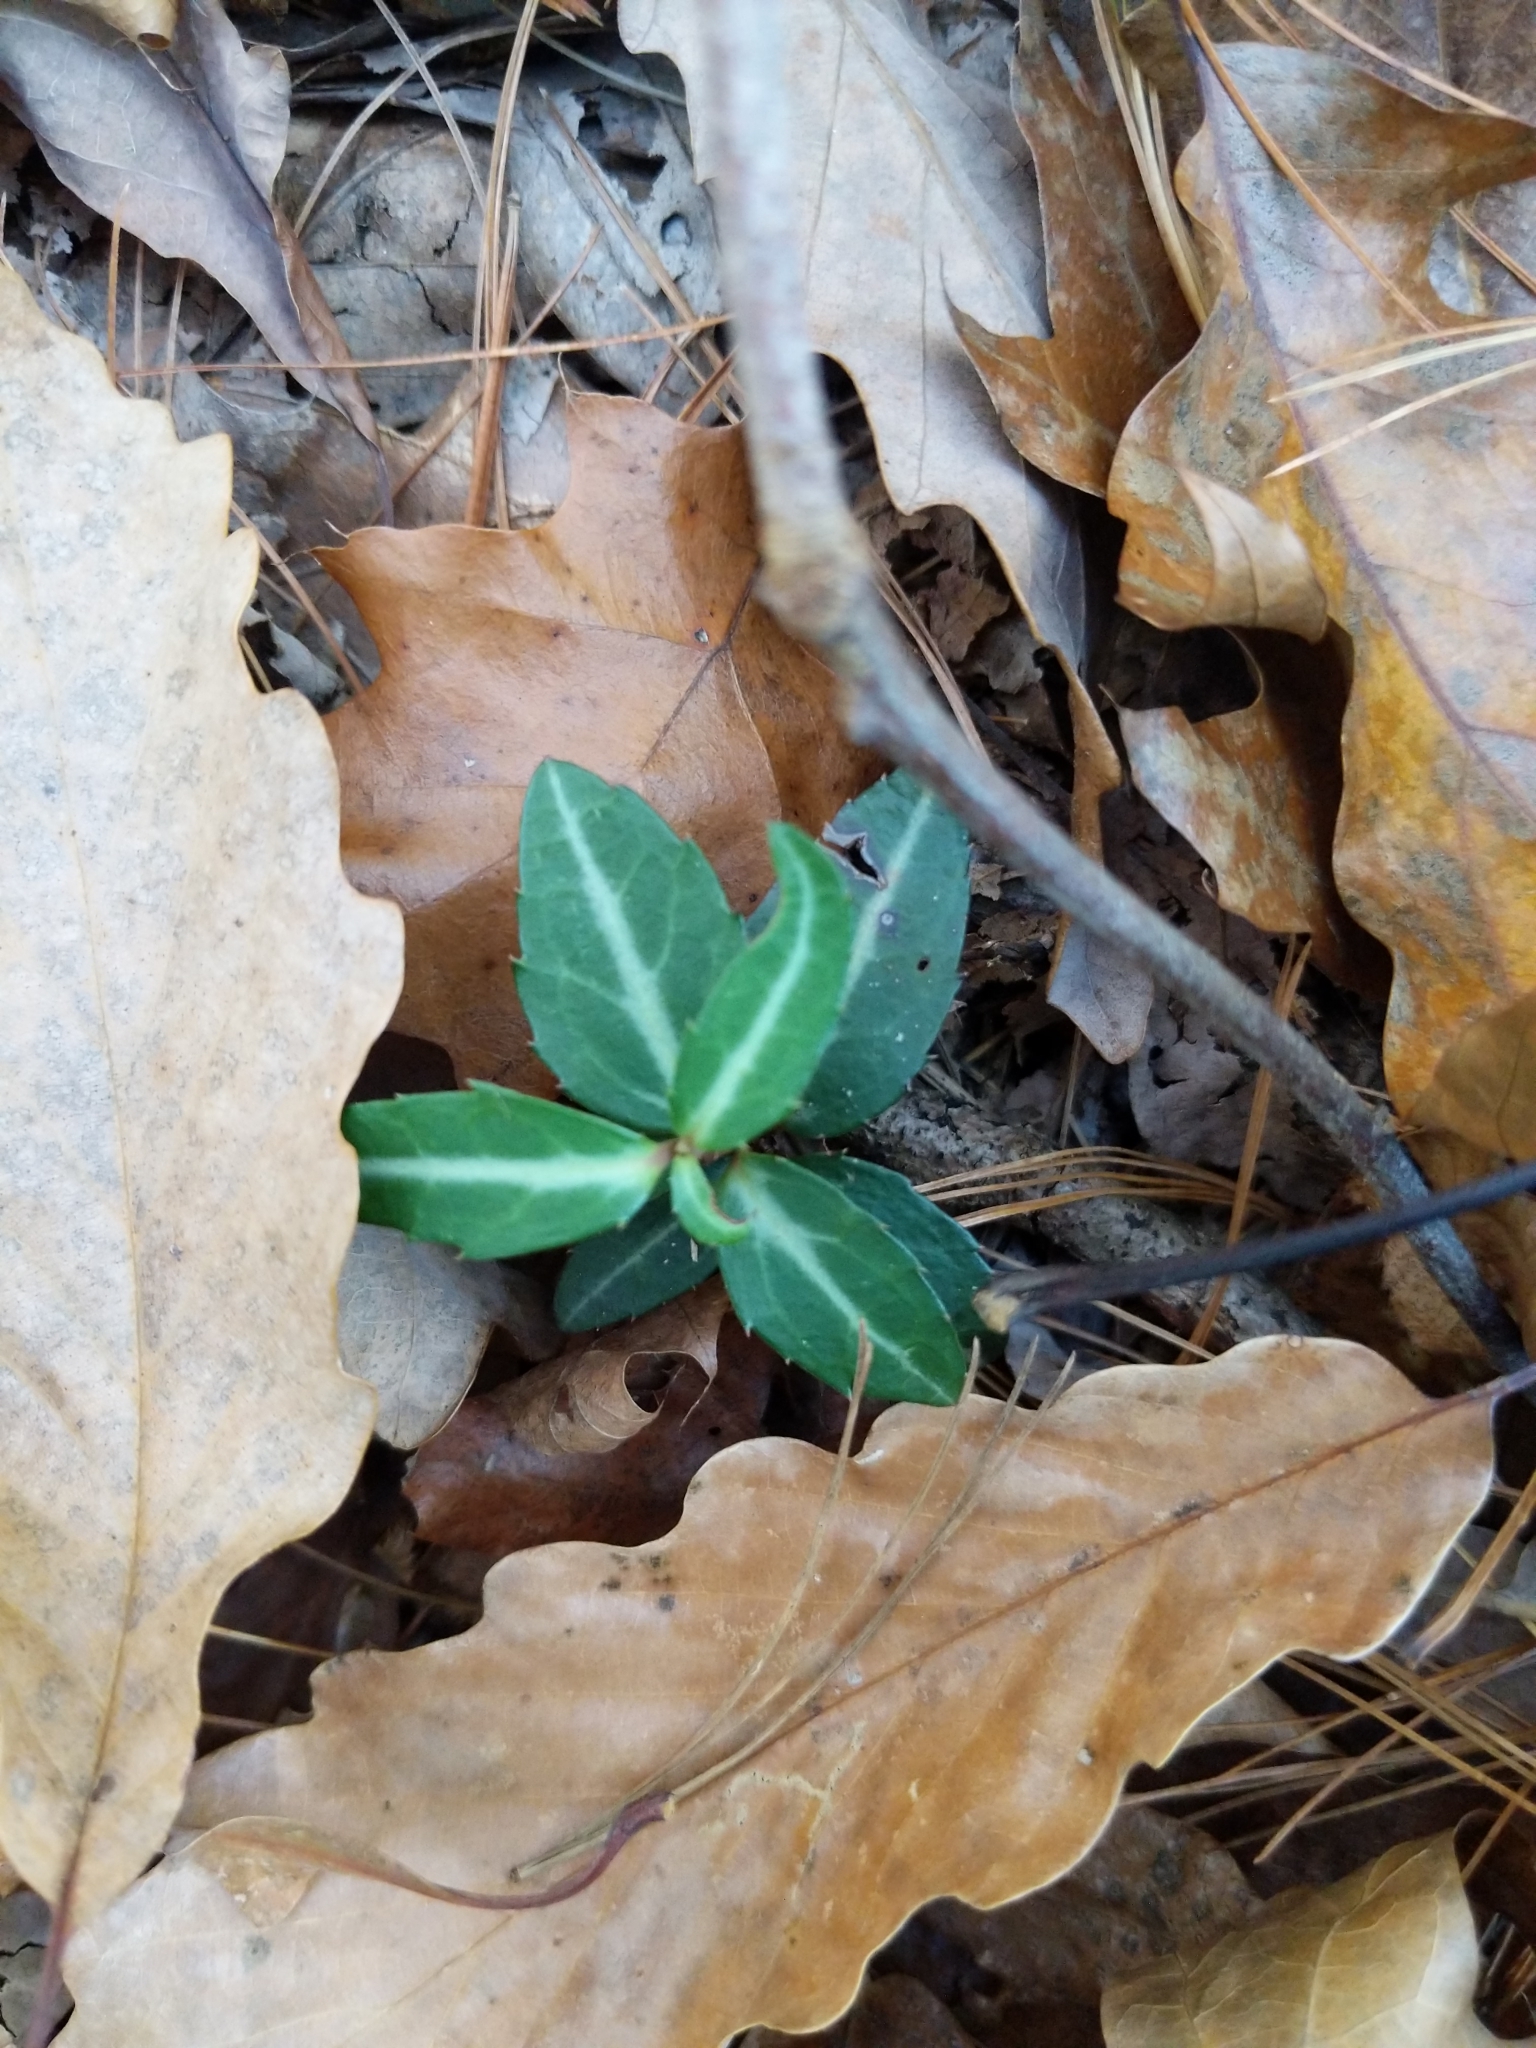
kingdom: Plantae
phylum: Tracheophyta
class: Magnoliopsida
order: Ericales
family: Ericaceae
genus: Chimaphila
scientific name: Chimaphila maculata
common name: Spotted pipsissewa
